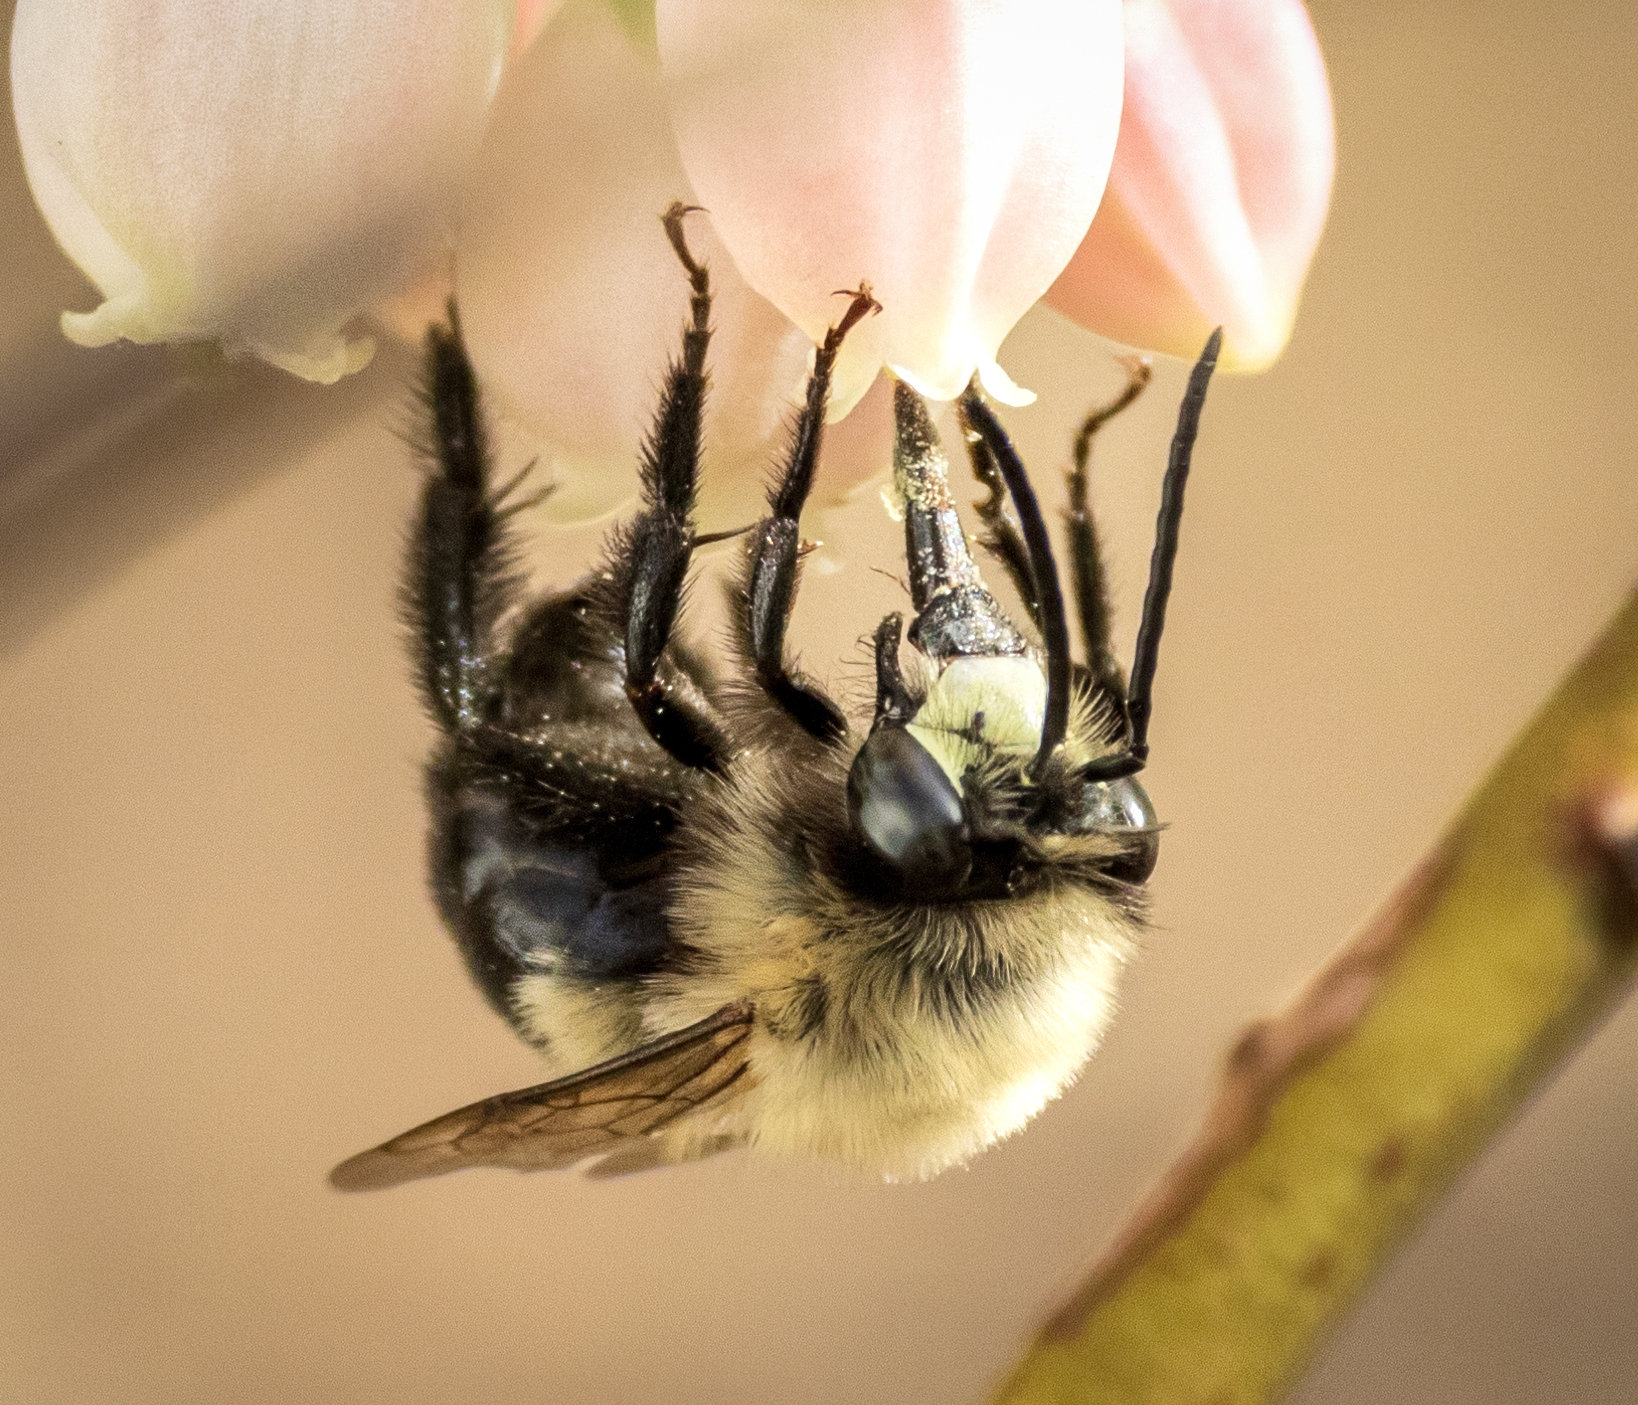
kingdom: Animalia
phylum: Arthropoda
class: Insecta
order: Hymenoptera
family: Apidae
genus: Habropoda
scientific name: Habropoda laboriosa
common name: Southeastern blueberry bee
